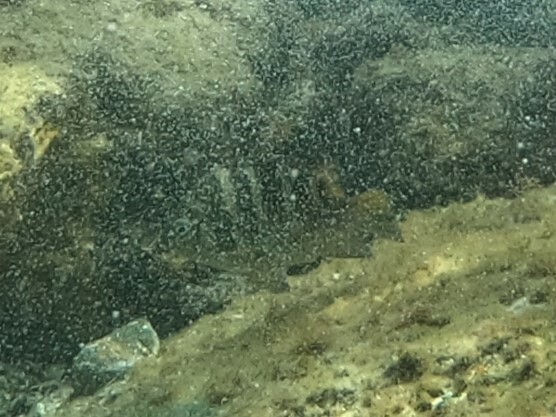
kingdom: Animalia
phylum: Chordata
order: Perciformes
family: Pomacentridae
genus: Abudefduf
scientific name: Abudefduf taurus
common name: Night sergeant
